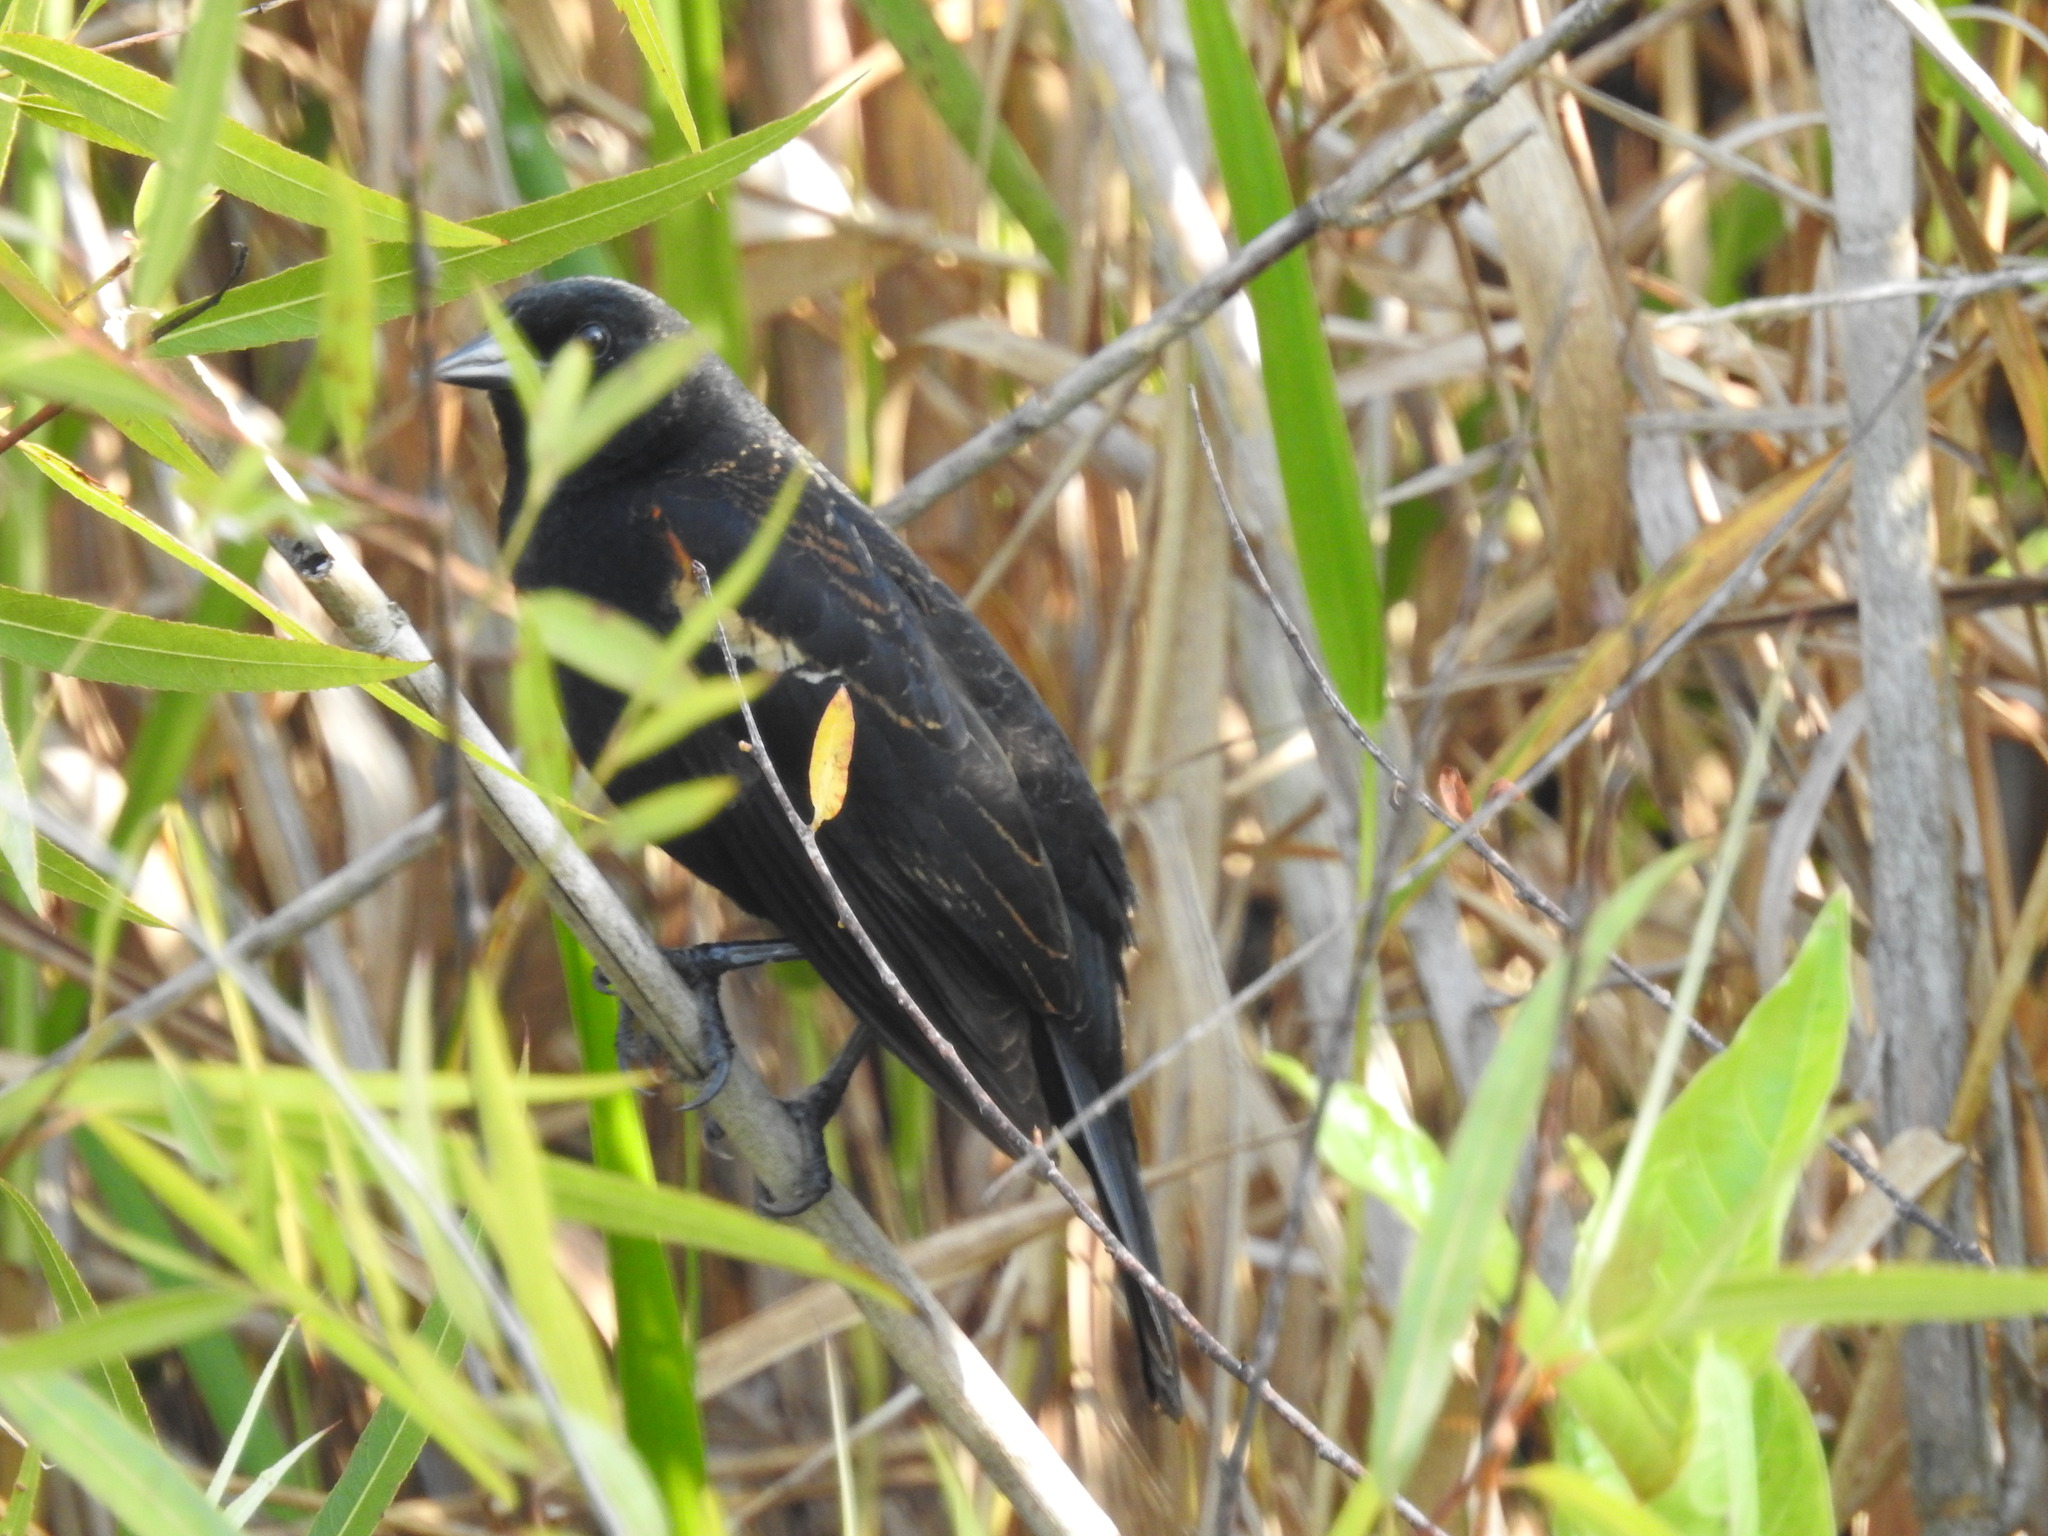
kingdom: Animalia
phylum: Chordata
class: Aves
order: Passeriformes
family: Icteridae
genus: Agelaius
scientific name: Agelaius phoeniceus
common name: Red-winged blackbird
